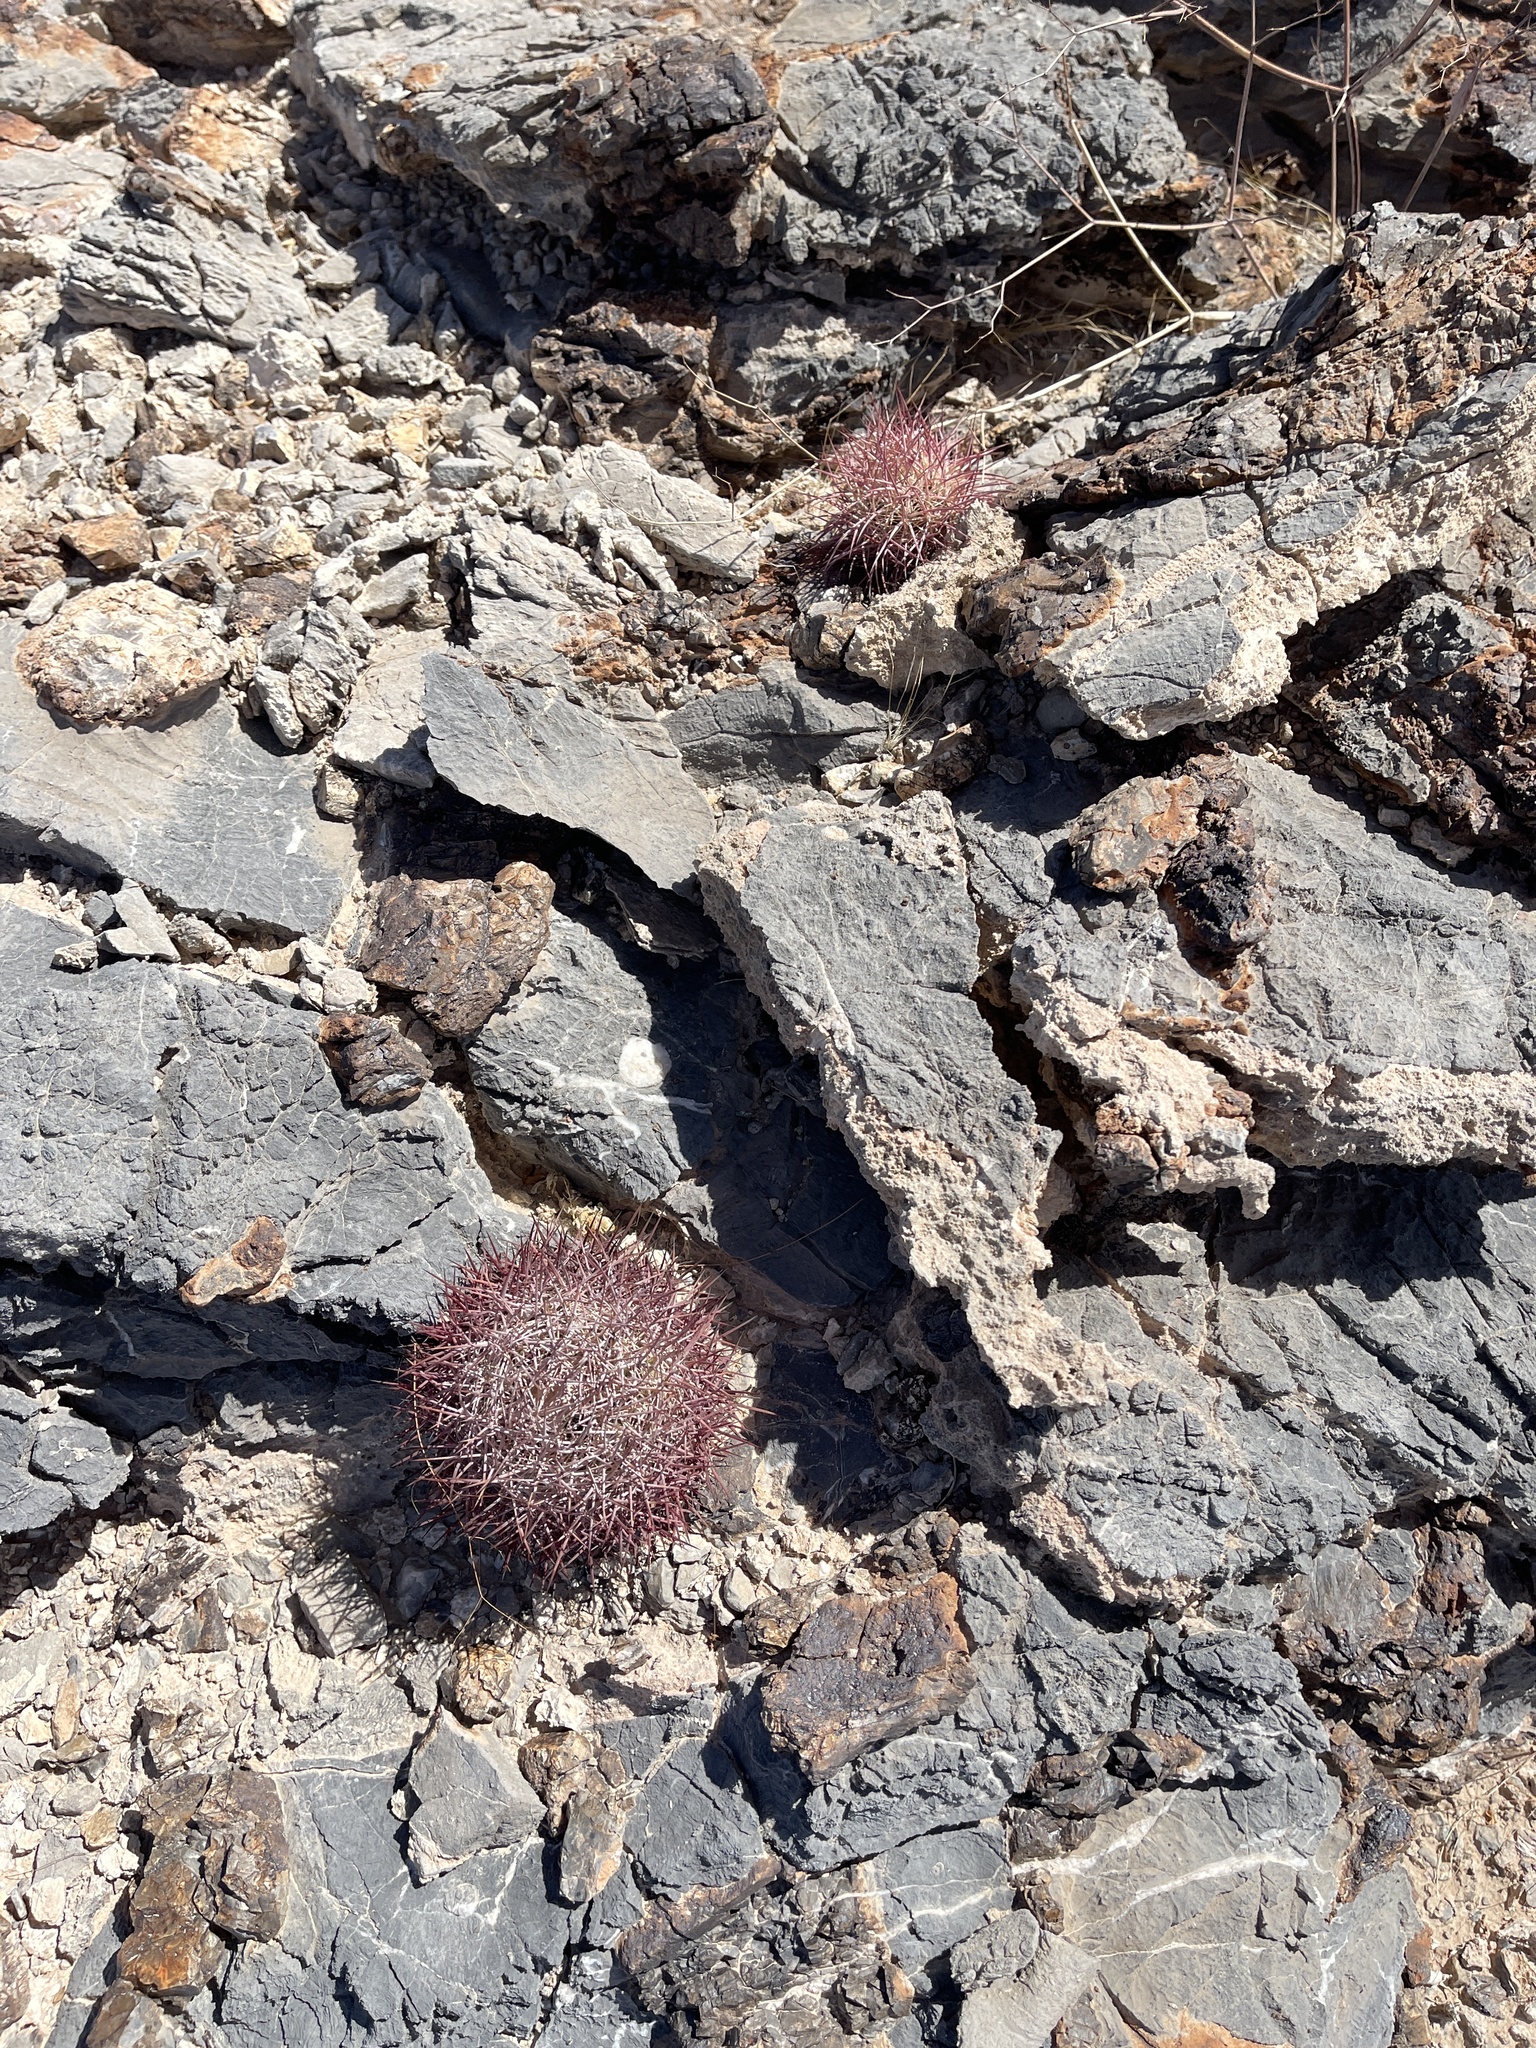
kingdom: Plantae
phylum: Tracheophyta
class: Magnoliopsida
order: Caryophyllales
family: Cactaceae
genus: Sclerocactus
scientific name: Sclerocactus johnsonii
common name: Eight-spine fishhook cactus
